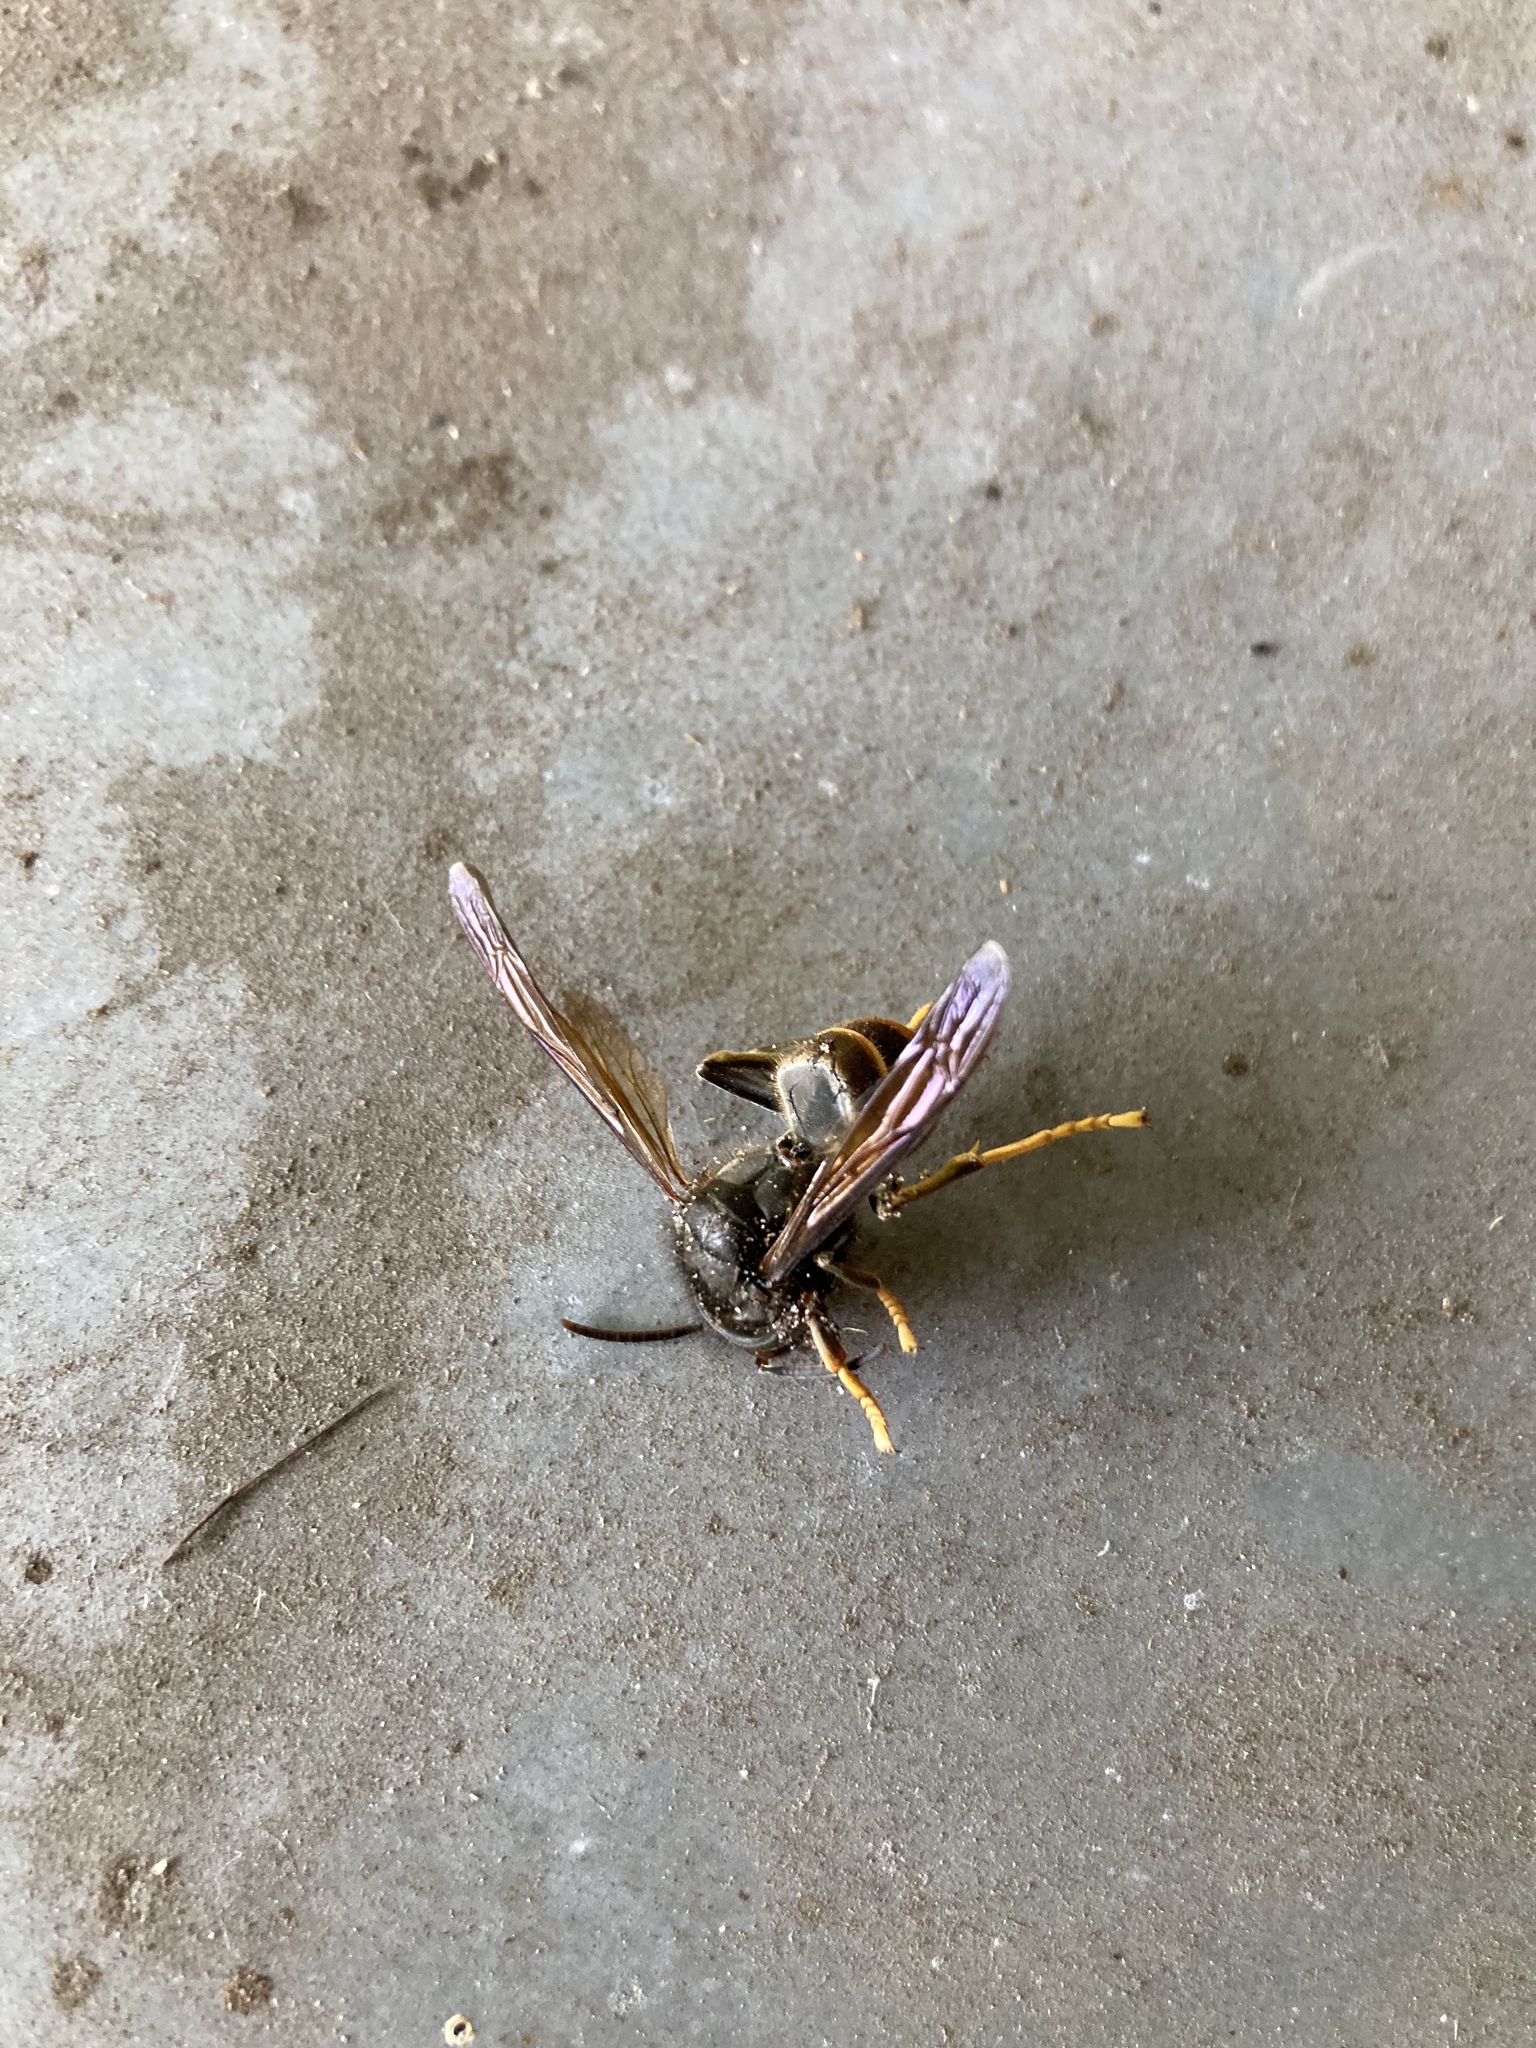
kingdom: Animalia
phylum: Arthropoda
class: Insecta
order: Hymenoptera
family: Vespidae
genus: Vespa
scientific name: Vespa velutina
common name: Asian hornet
